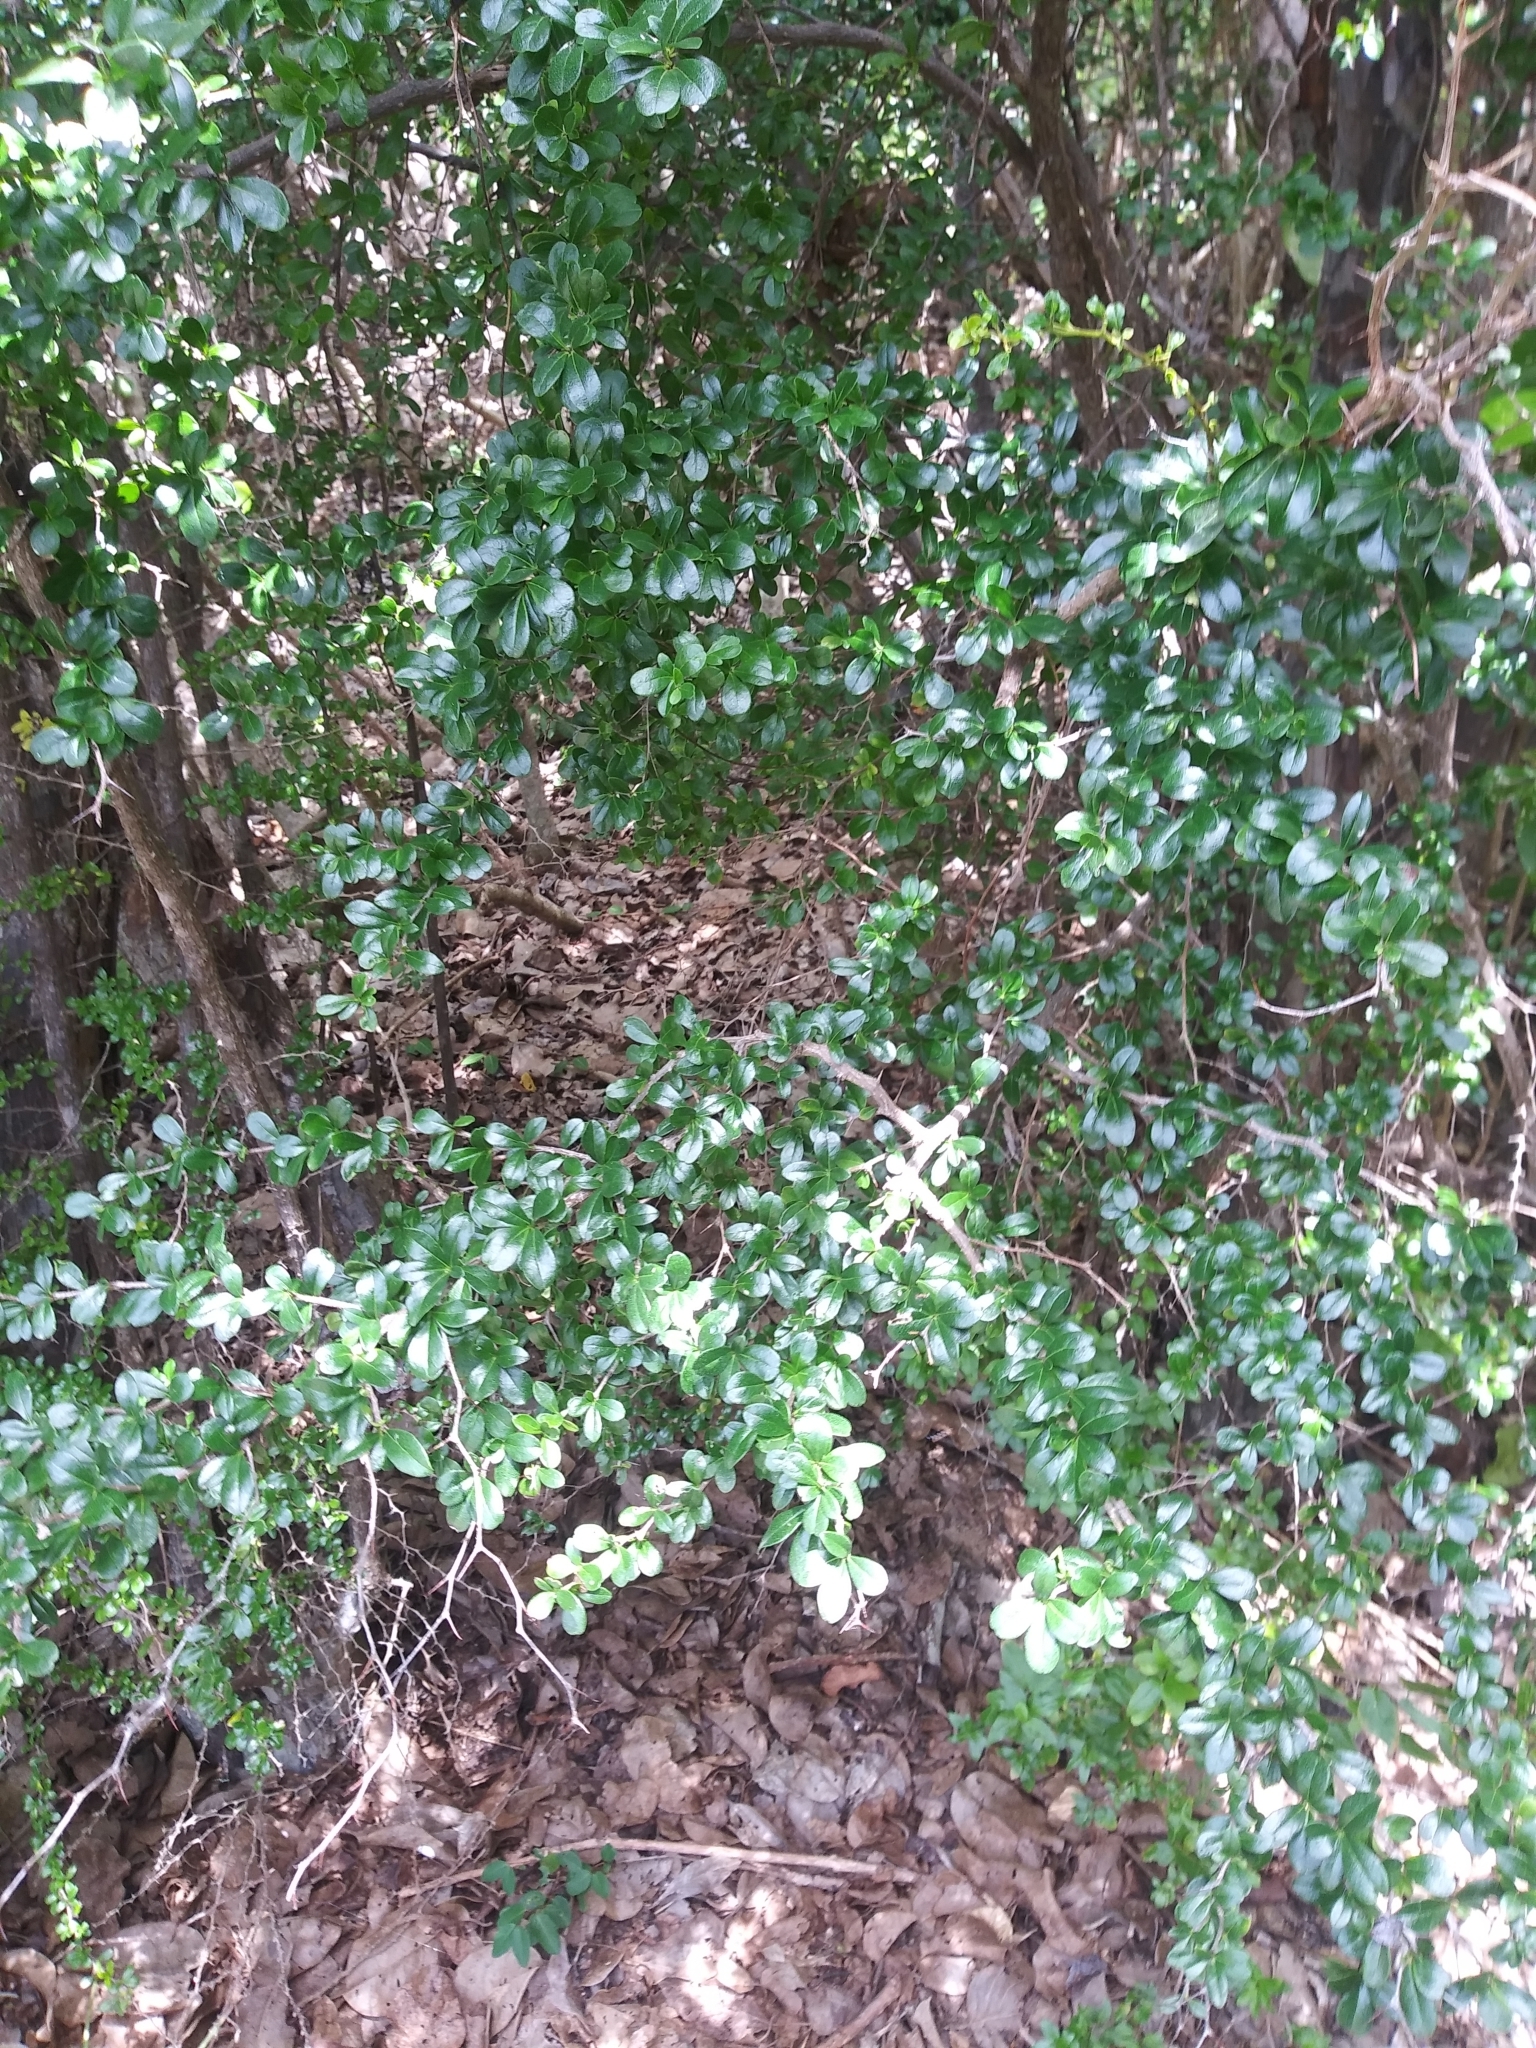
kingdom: Plantae
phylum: Tracheophyta
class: Magnoliopsida
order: Boraginales
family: Ehretiaceae
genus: Rochefortia
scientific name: Rochefortia acanthophora
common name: Greenheart ebony
